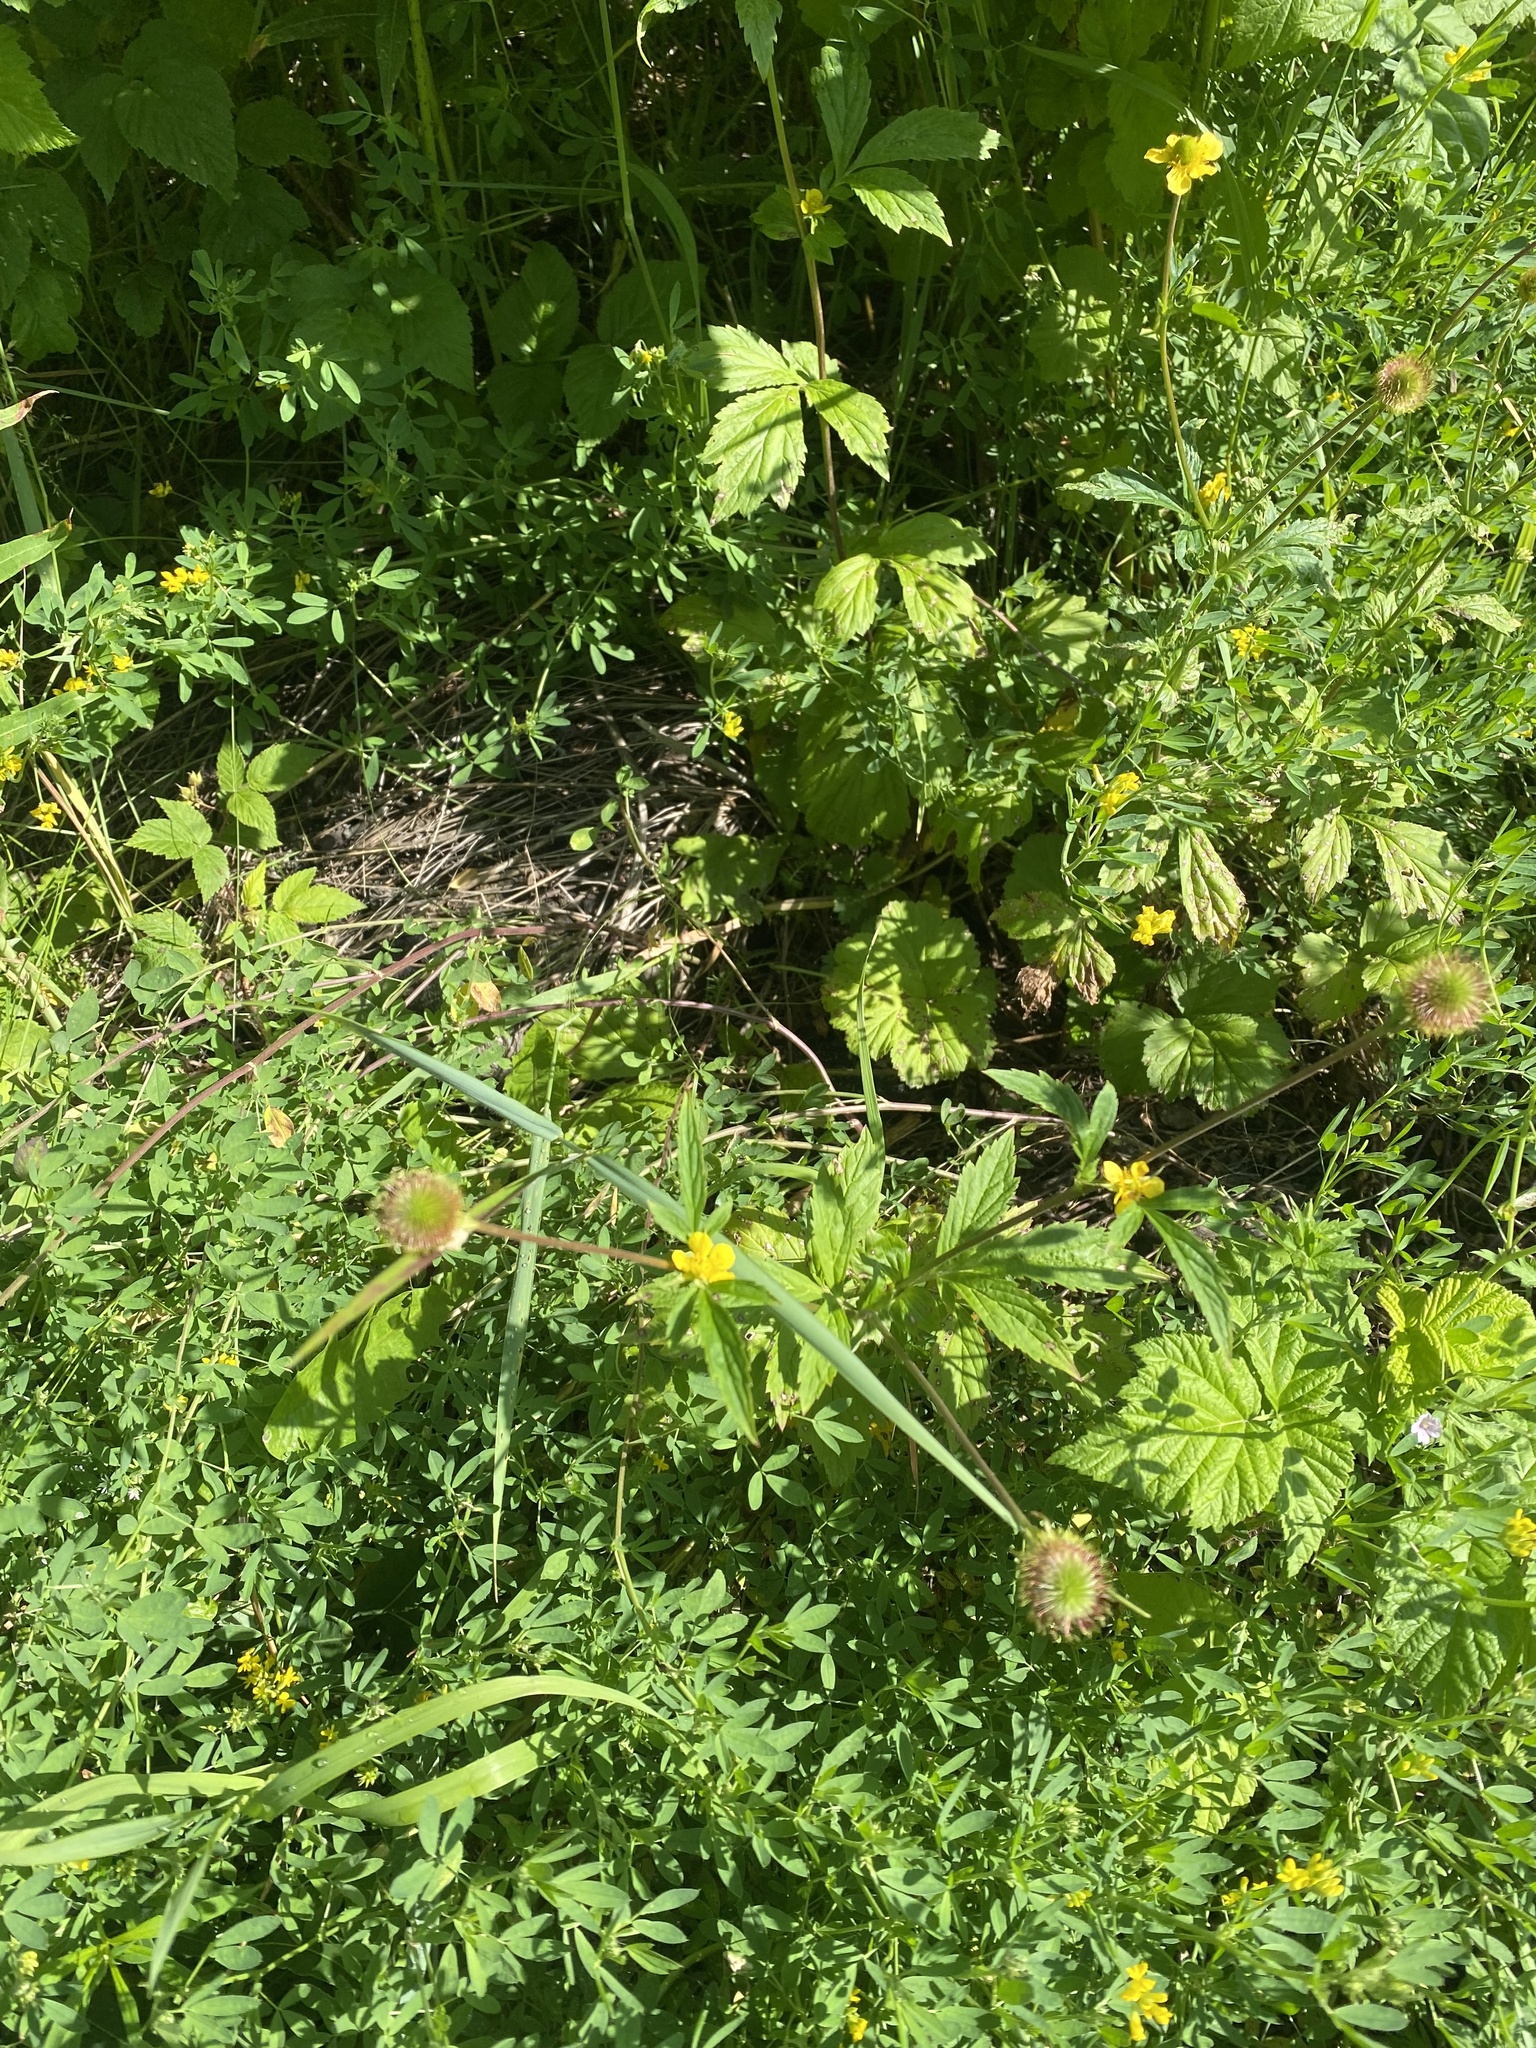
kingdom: Plantae
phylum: Tracheophyta
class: Magnoliopsida
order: Rosales
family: Rosaceae
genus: Geum
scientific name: Geum aleppicum
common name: Yellow avens
